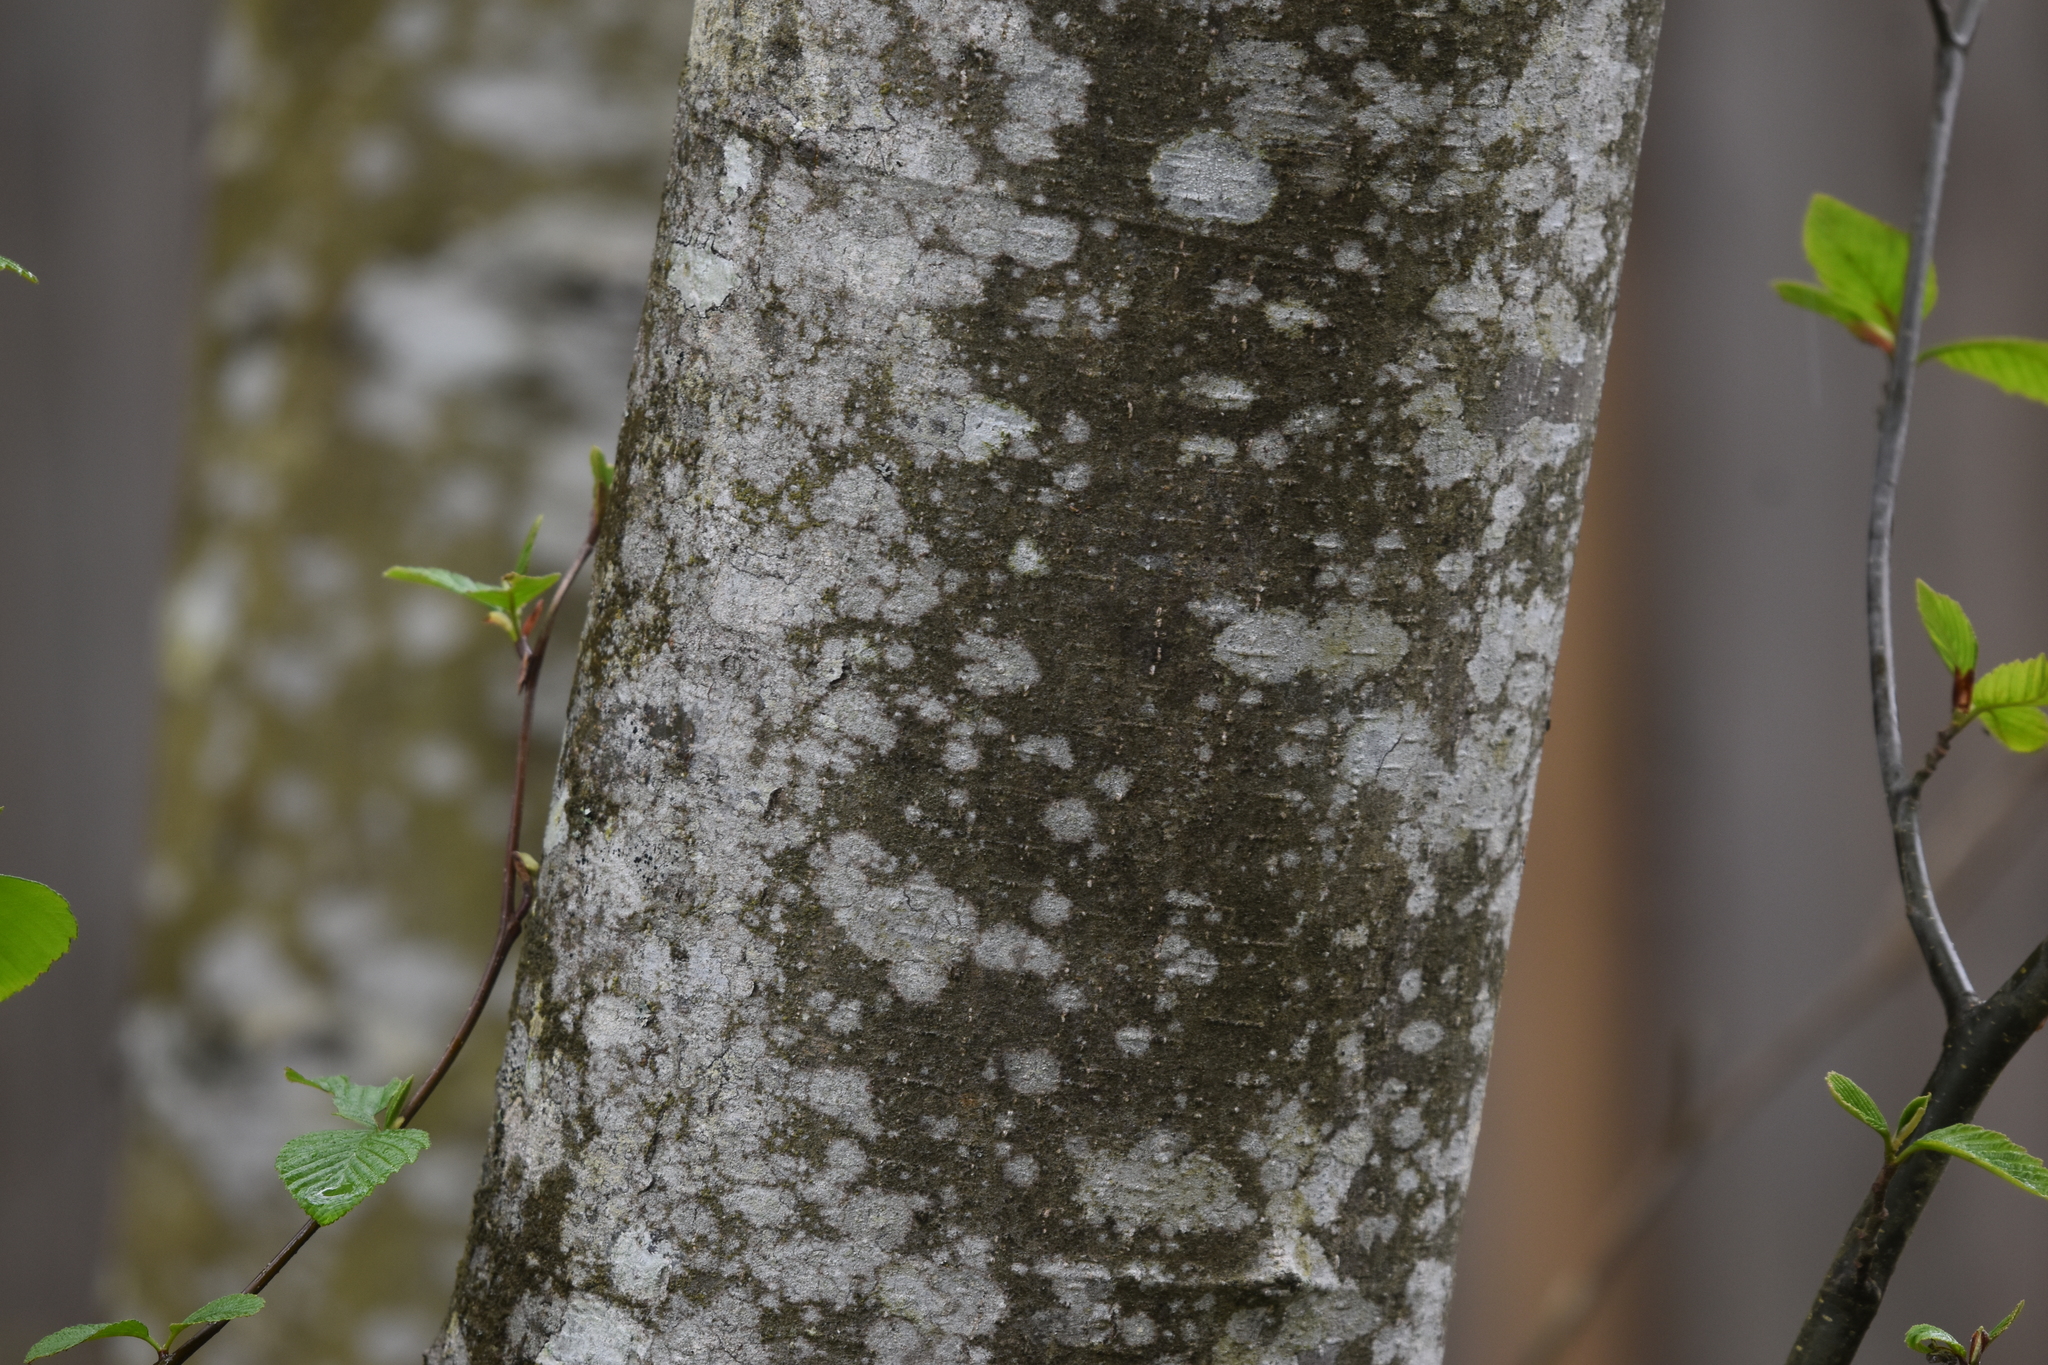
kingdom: Plantae
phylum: Tracheophyta
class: Magnoliopsida
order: Fagales
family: Betulaceae
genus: Alnus
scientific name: Alnus rubra
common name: Red alder
